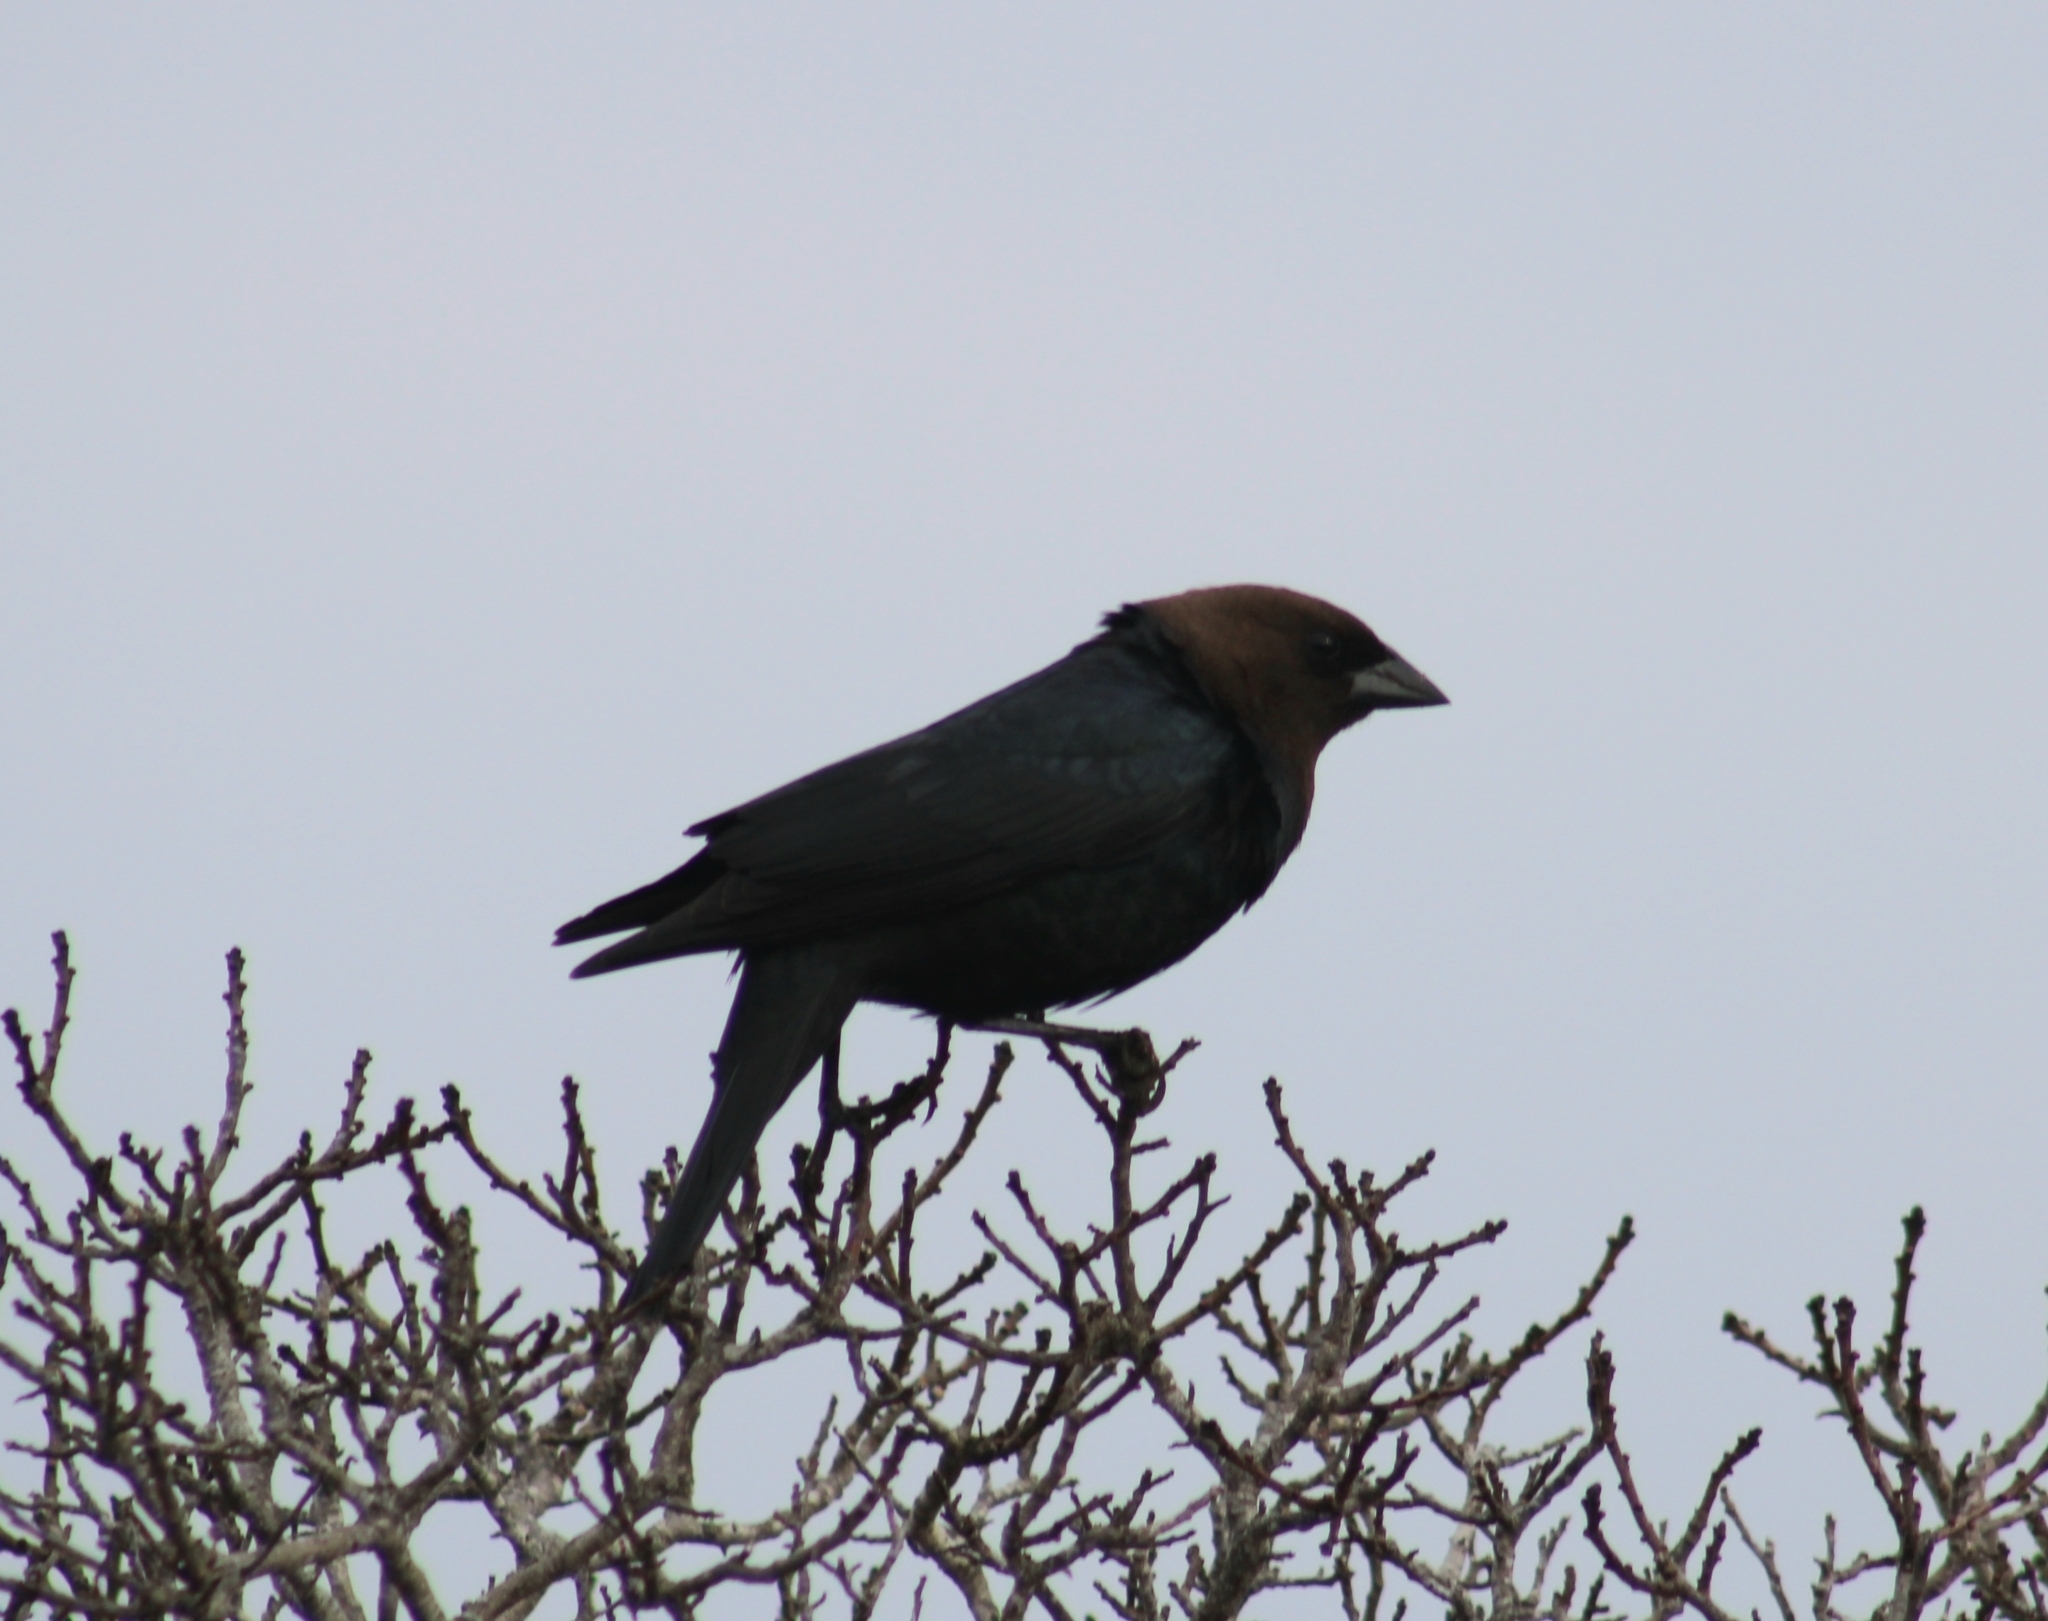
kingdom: Animalia
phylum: Chordata
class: Aves
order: Passeriformes
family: Icteridae
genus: Molothrus
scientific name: Molothrus ater
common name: Brown-headed cowbird
